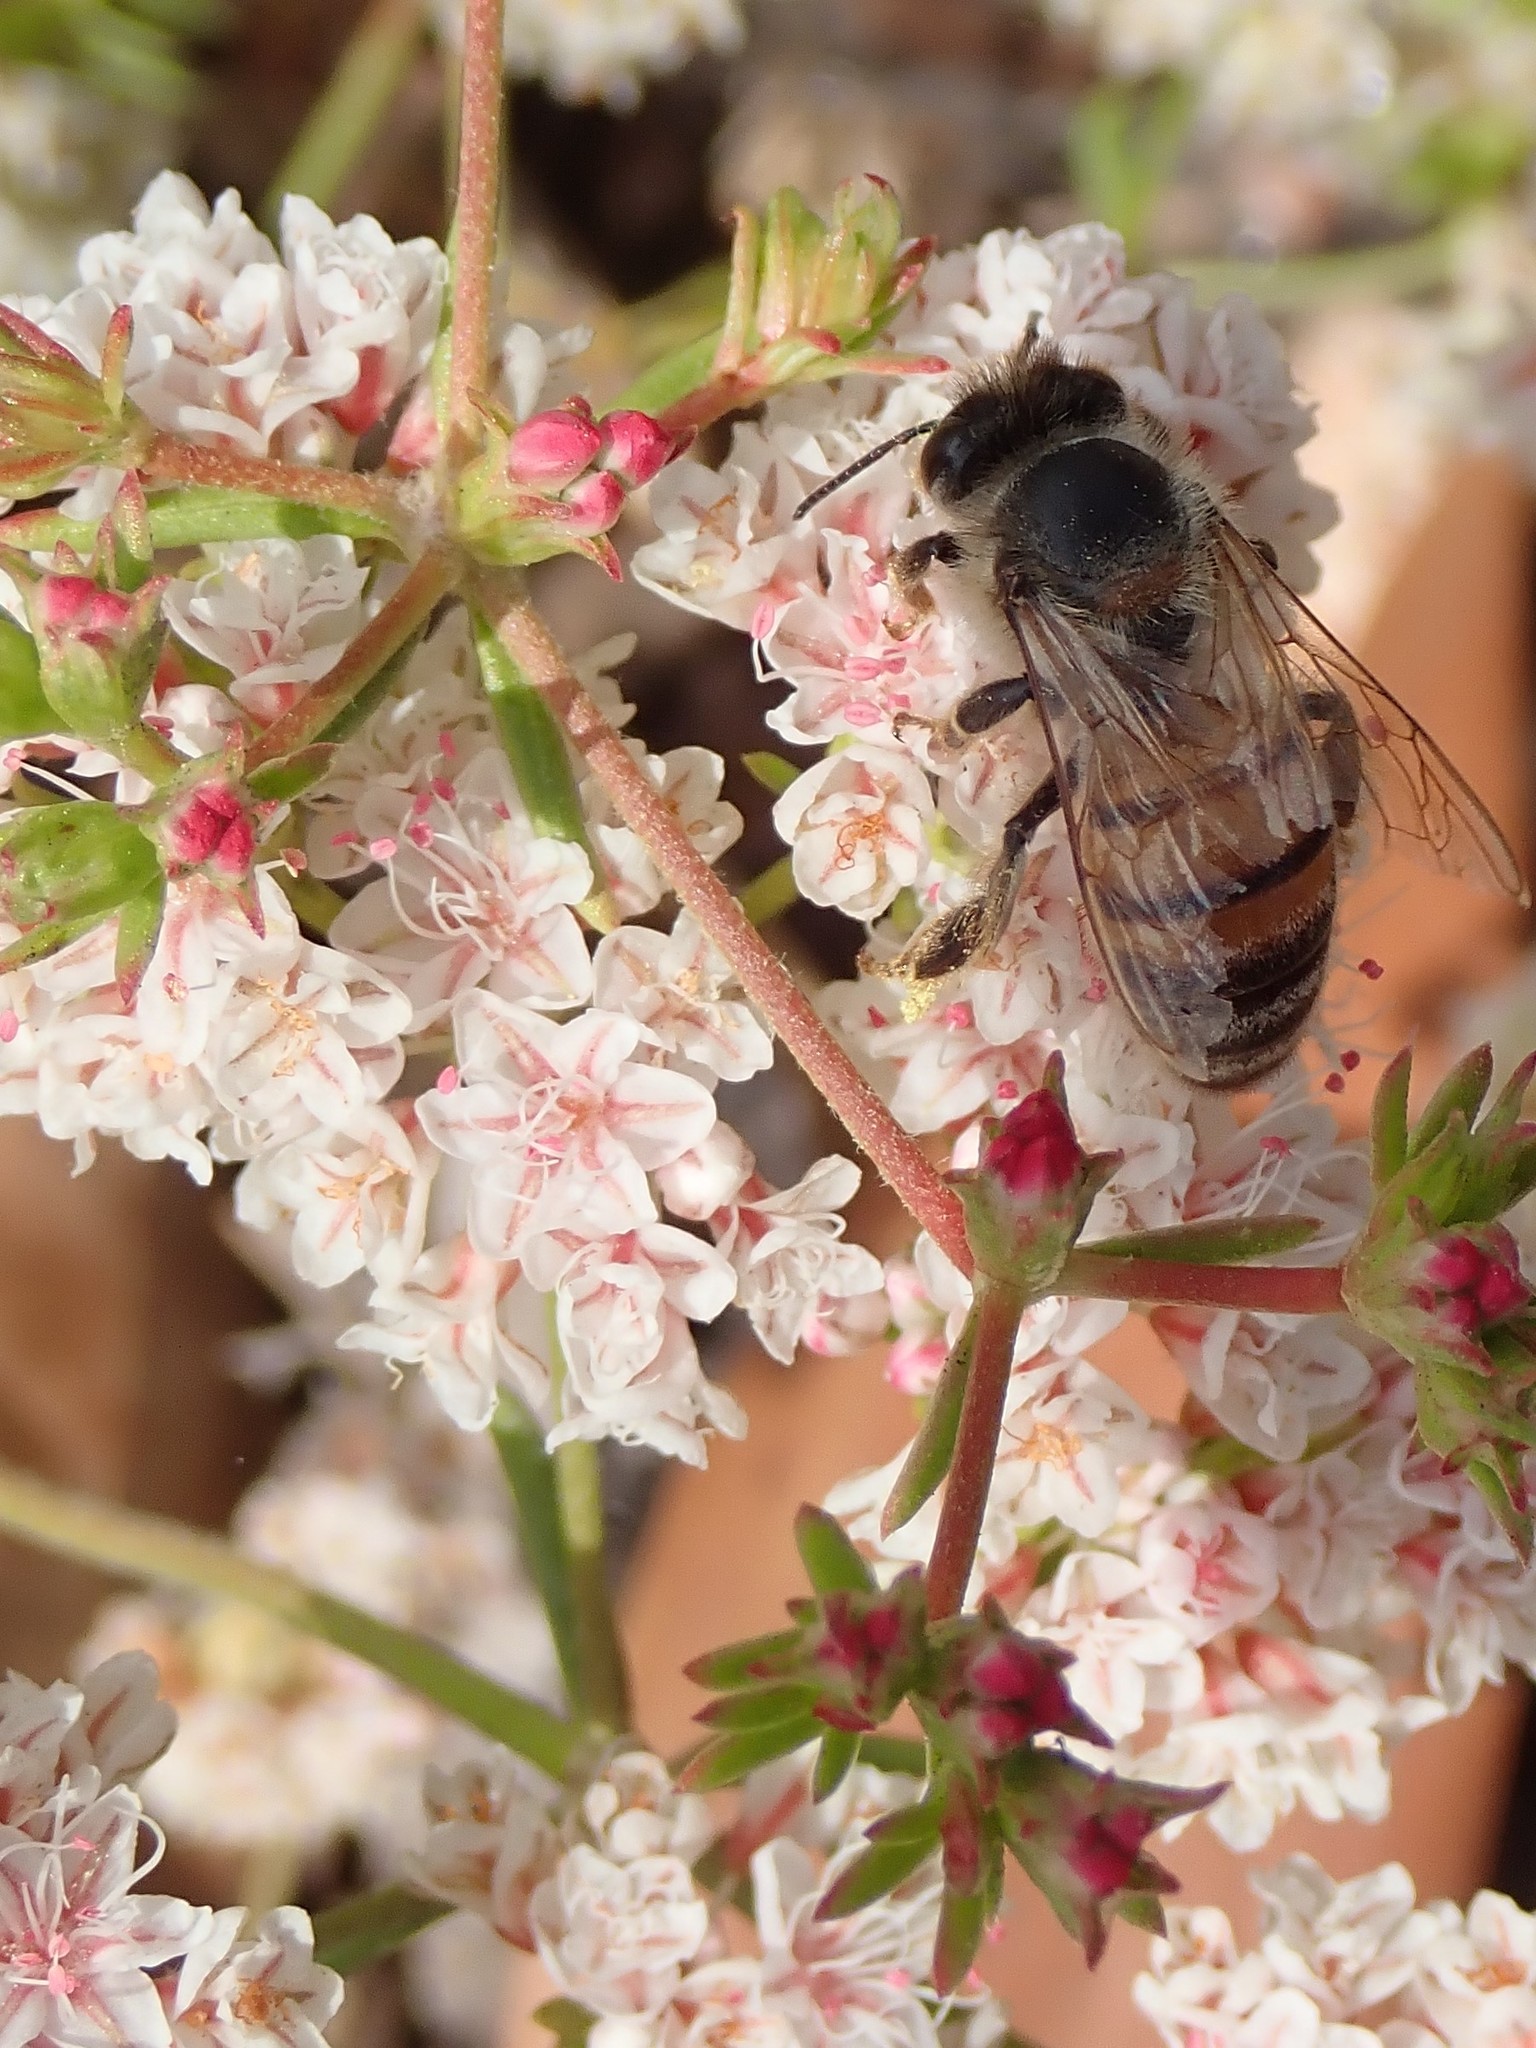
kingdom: Animalia
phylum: Arthropoda
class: Insecta
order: Hymenoptera
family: Apidae
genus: Apis
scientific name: Apis mellifera
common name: Honey bee
